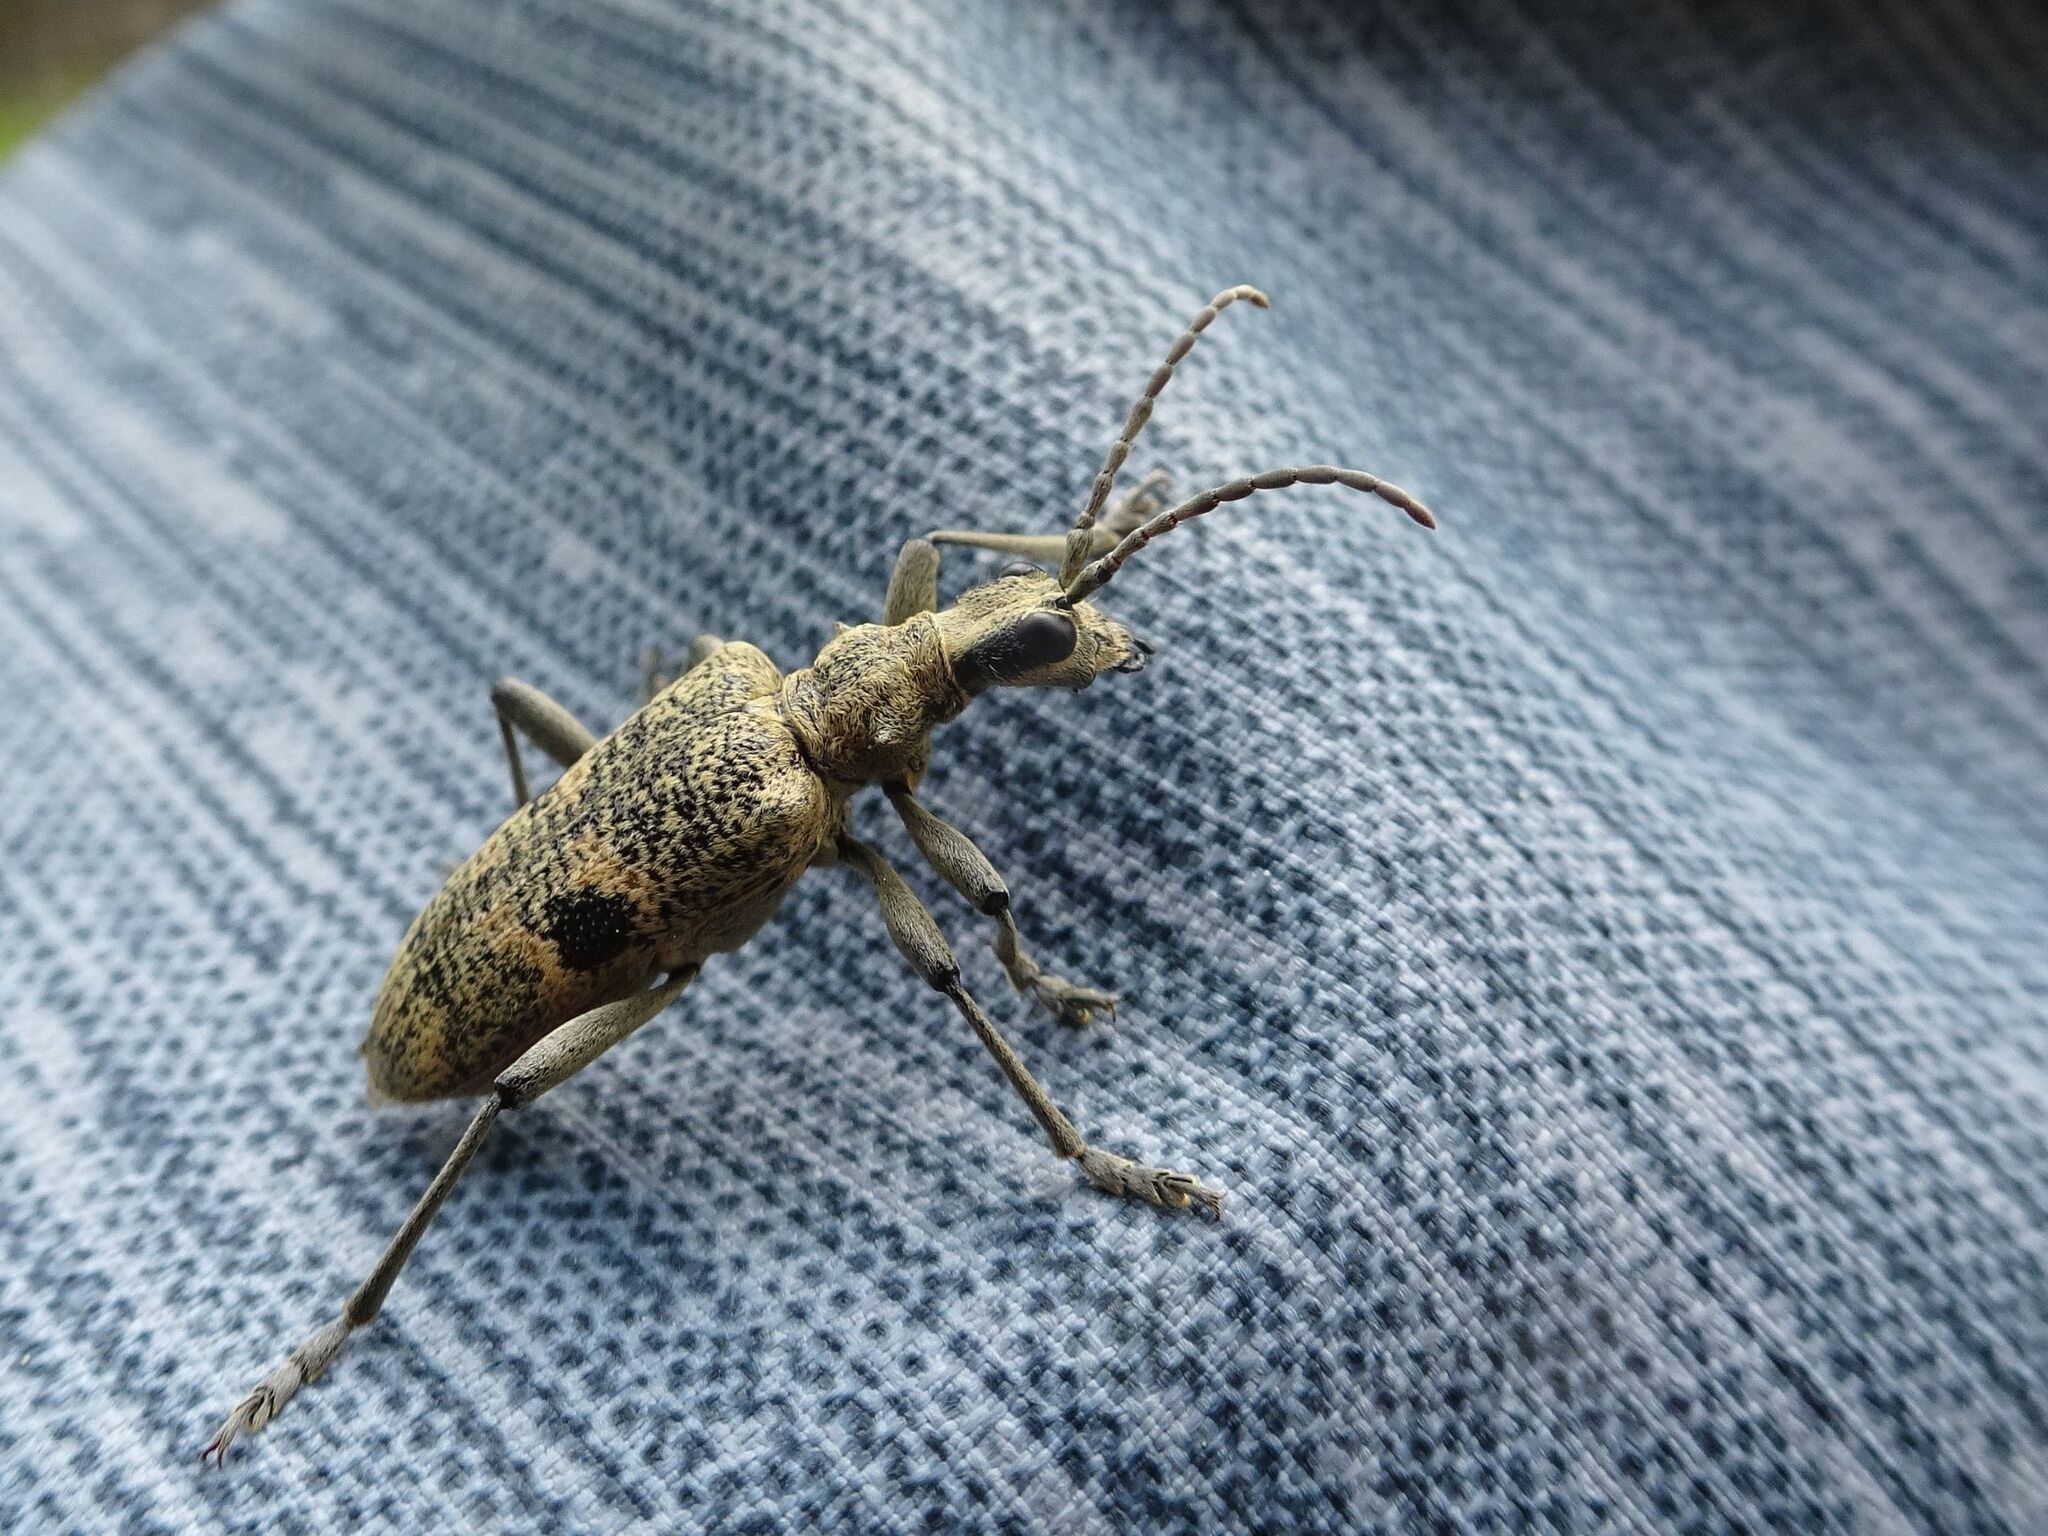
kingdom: Animalia
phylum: Arthropoda
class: Insecta
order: Coleoptera
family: Cerambycidae
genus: Rhagium
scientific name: Rhagium mordax
